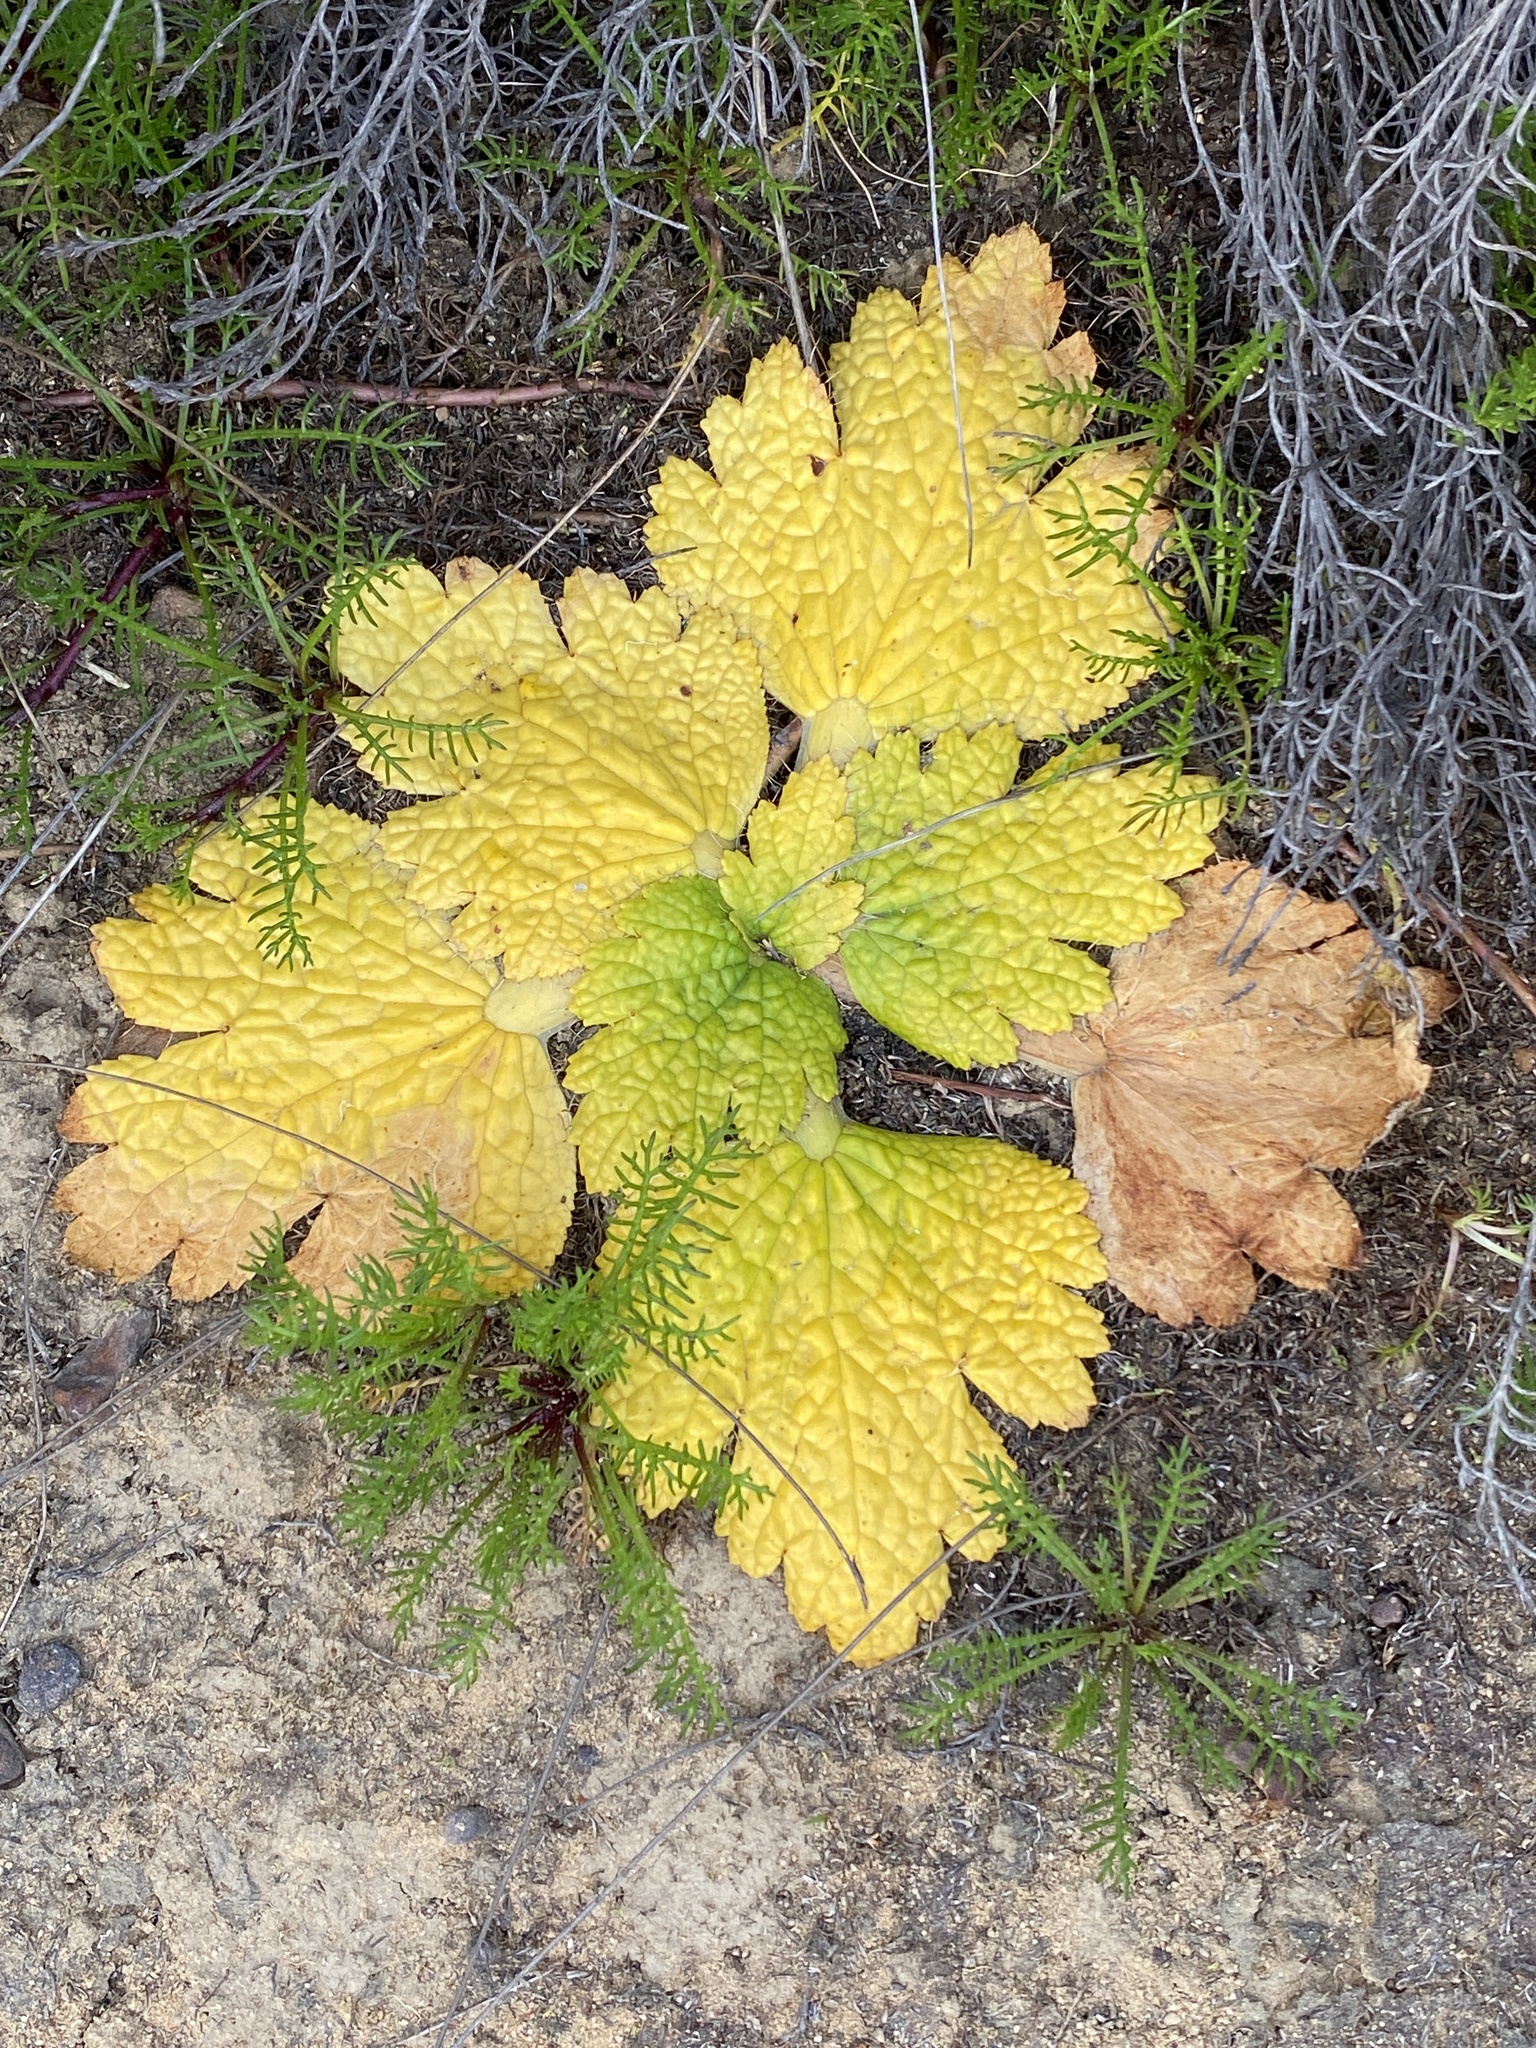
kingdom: Plantae
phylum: Tracheophyta
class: Magnoliopsida
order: Apiales
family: Apiaceae
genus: Arctopus
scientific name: Arctopus echinatus
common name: Platdoring
